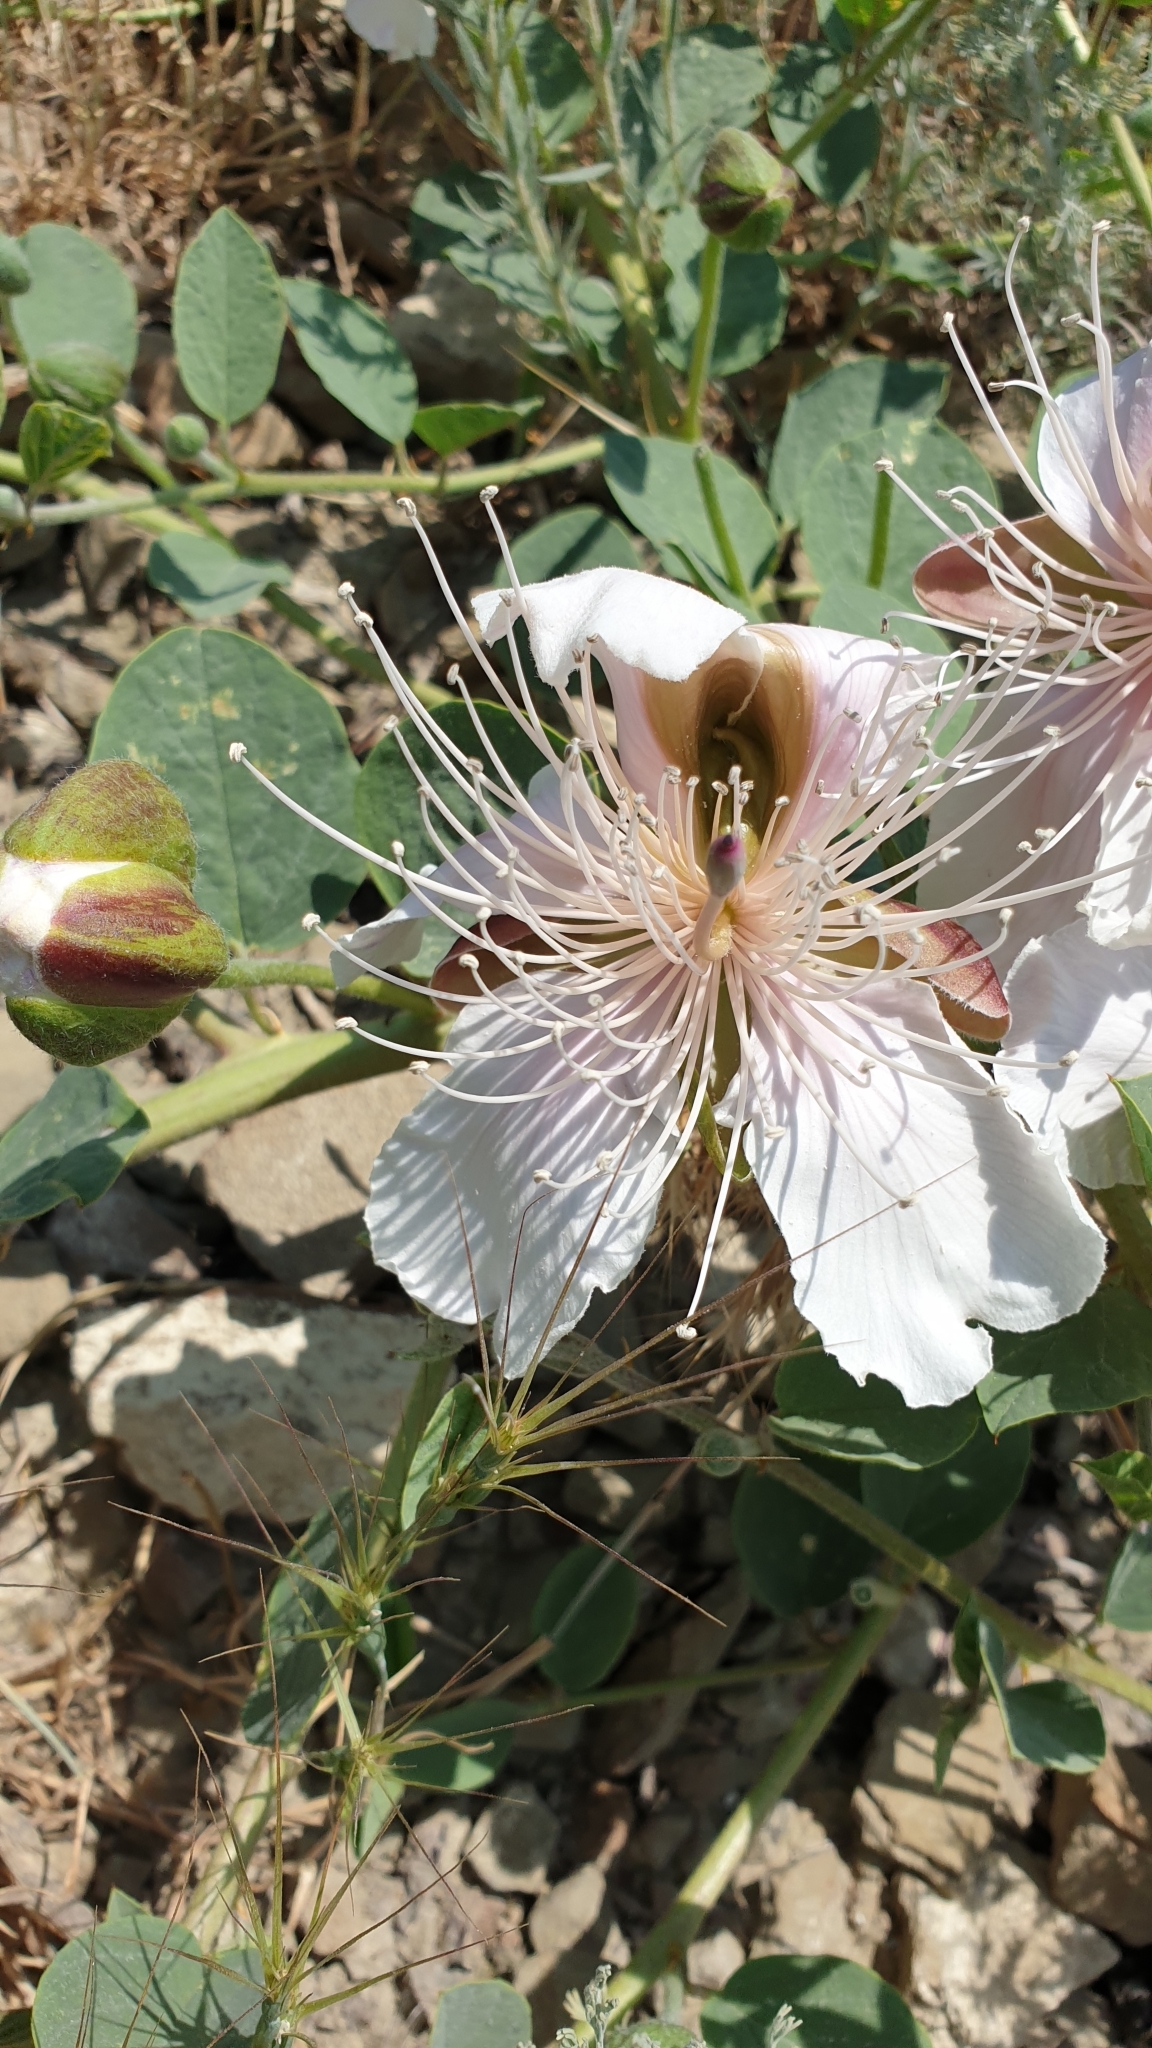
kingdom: Plantae
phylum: Tracheophyta
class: Magnoliopsida
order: Brassicales
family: Capparaceae
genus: Capparis
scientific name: Capparis spinosa
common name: Caper
